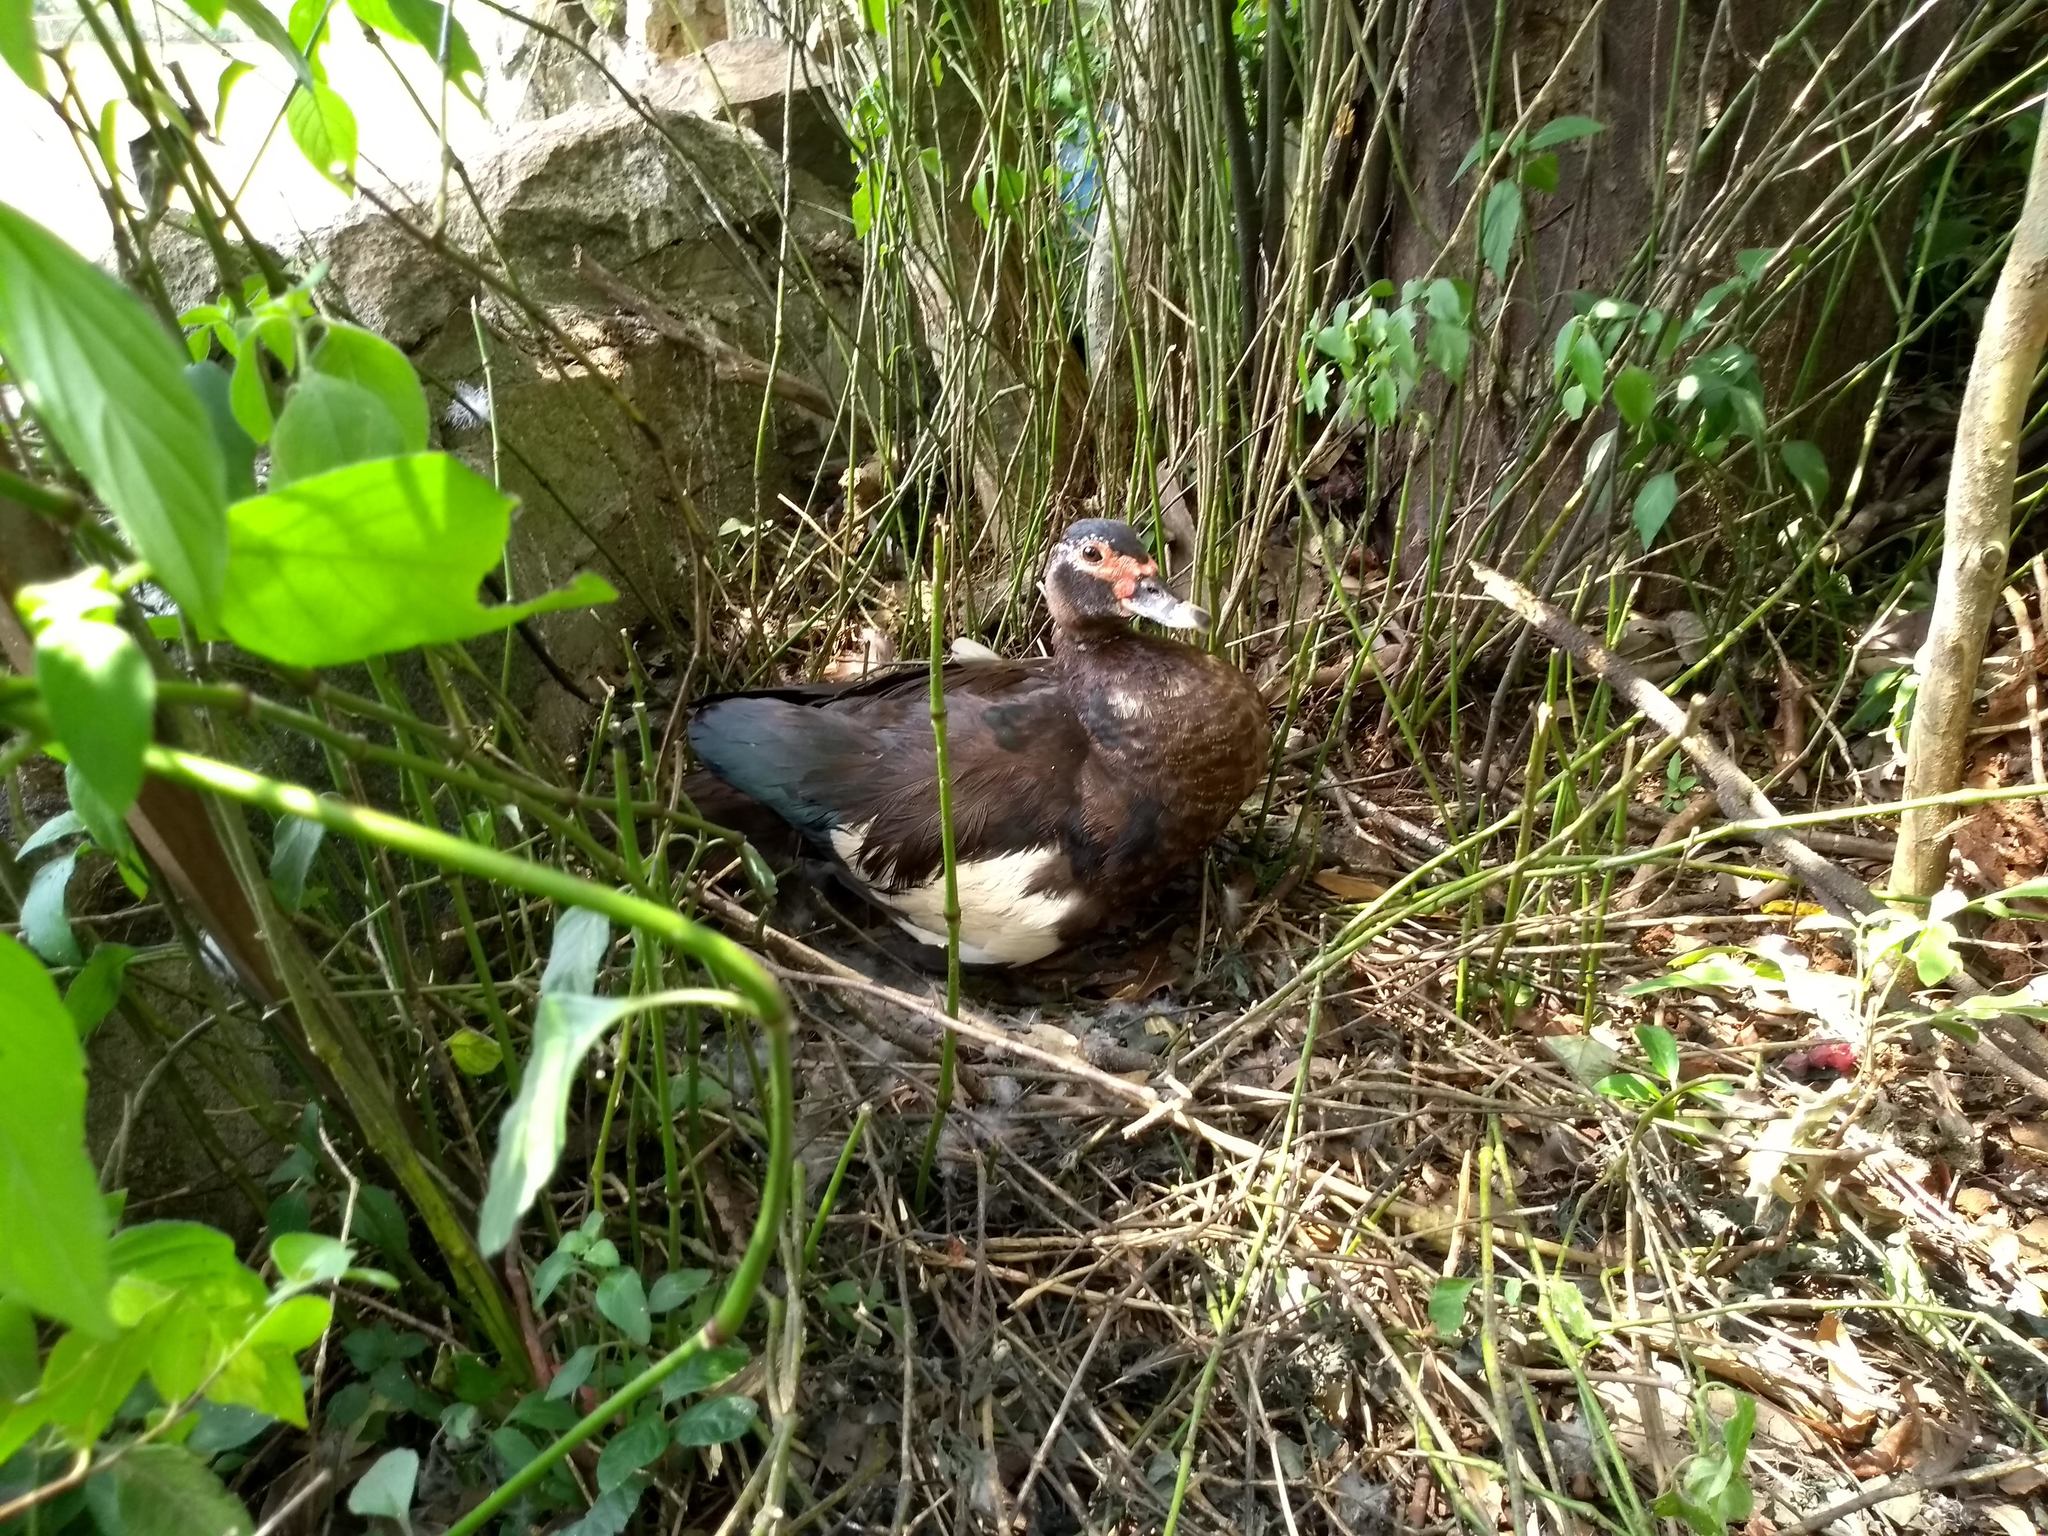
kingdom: Animalia
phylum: Chordata
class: Aves
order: Anseriformes
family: Anatidae
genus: Cairina
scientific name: Cairina moschata
